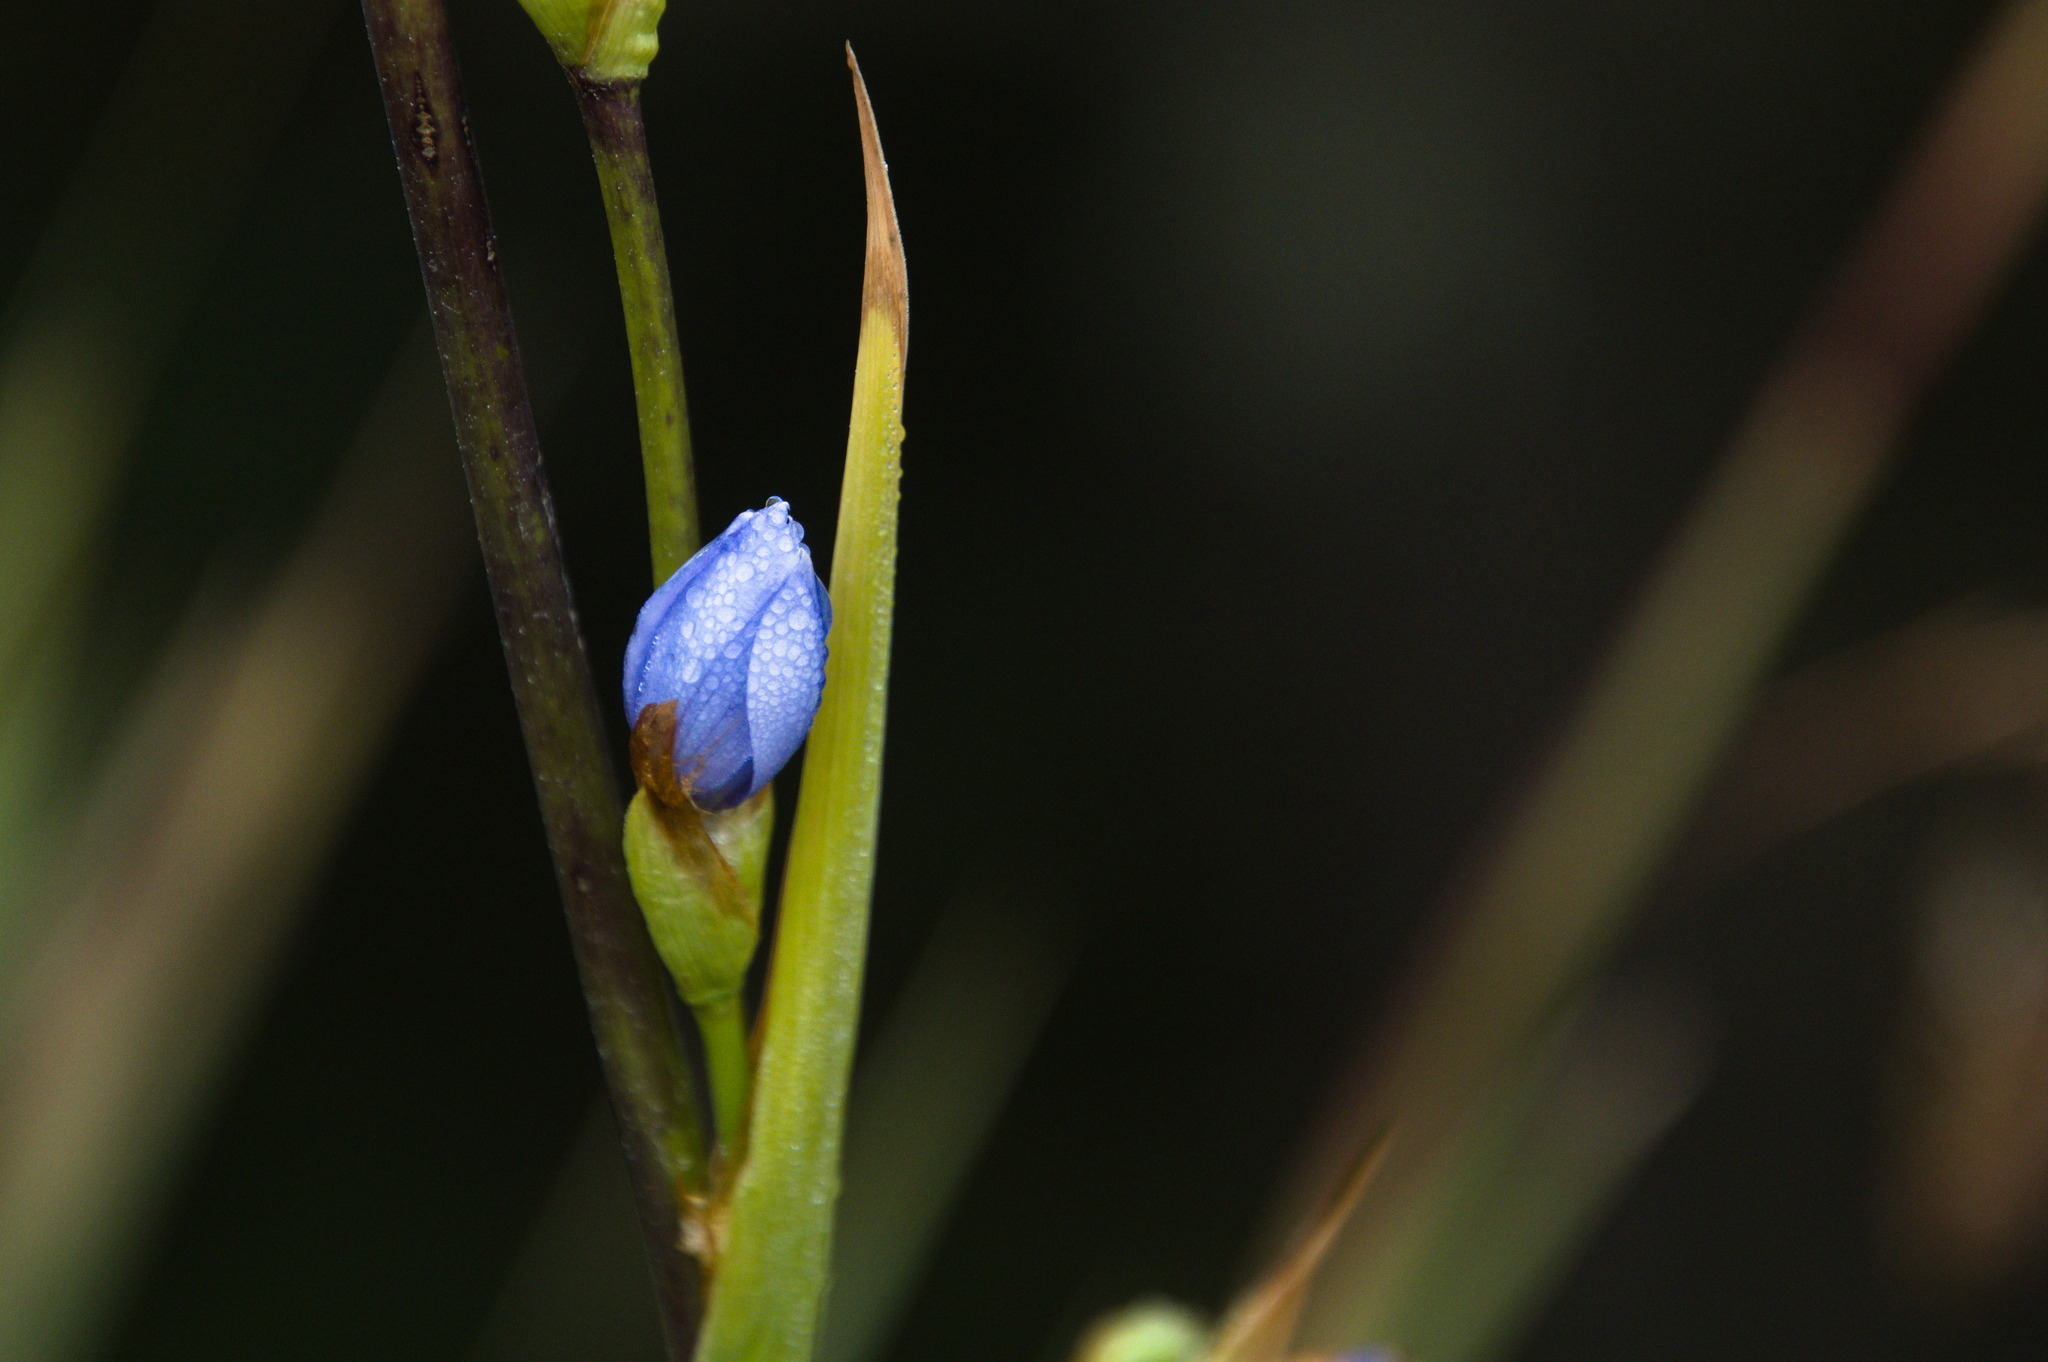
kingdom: Plantae
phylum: Tracheophyta
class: Liliopsida
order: Asparagales
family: Iridaceae
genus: Orthrosanthus
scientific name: Orthrosanthus chimboracensis
